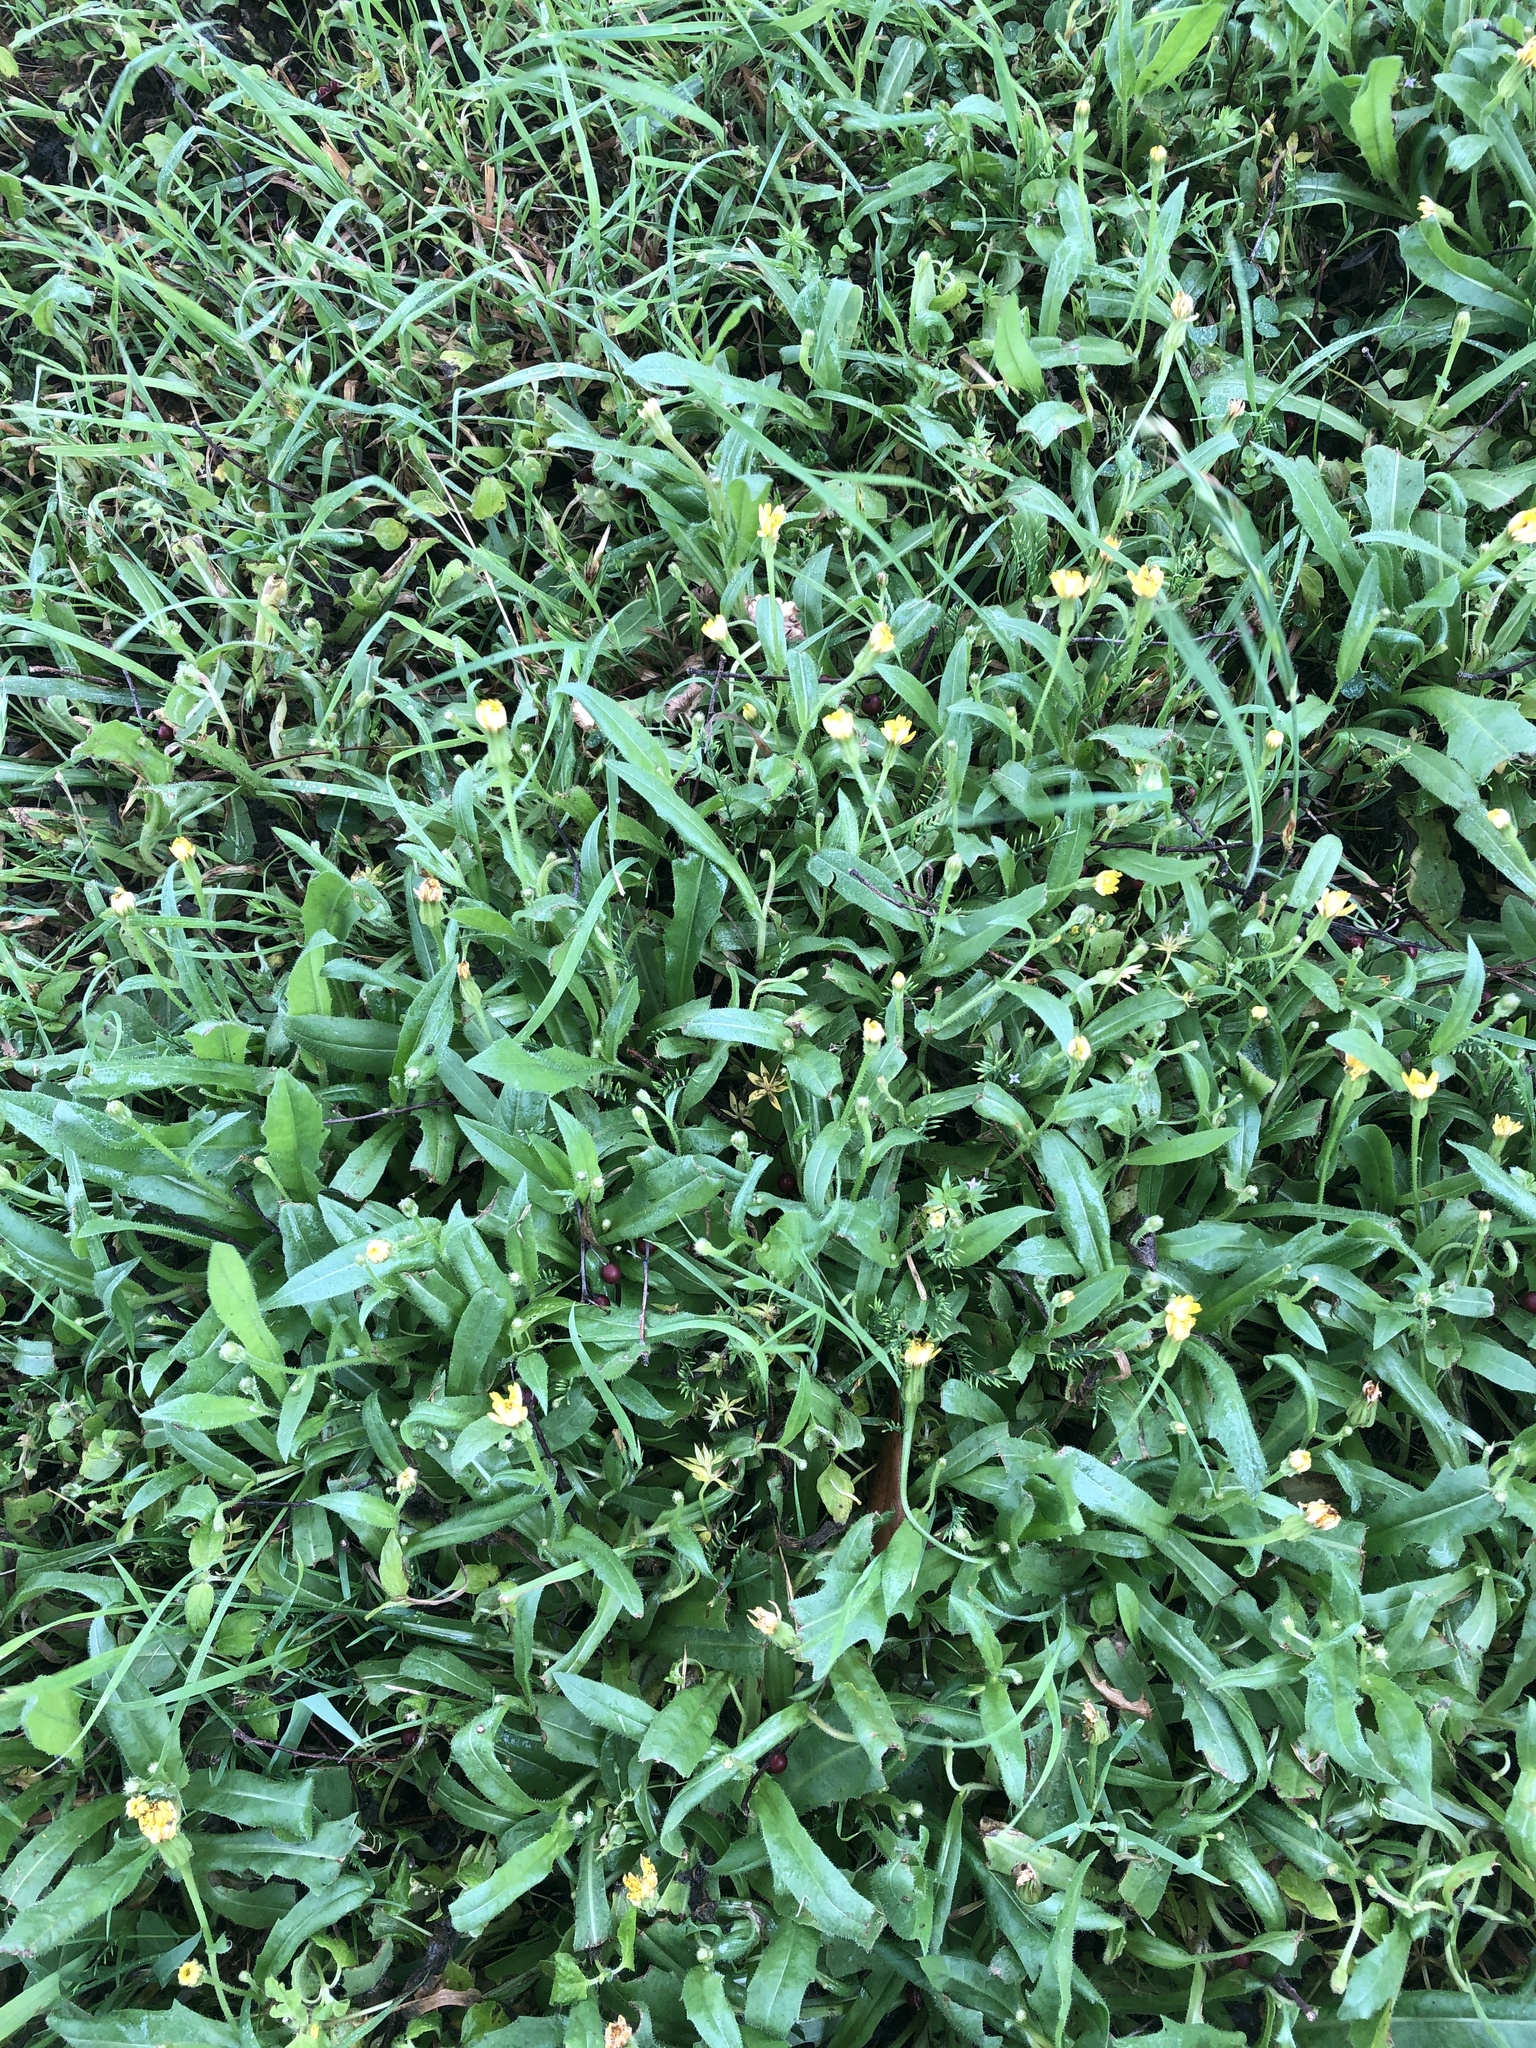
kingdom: Plantae
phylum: Tracheophyta
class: Magnoliopsida
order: Asterales
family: Asteraceae
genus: Hedypnois
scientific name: Hedypnois rhagadioloides
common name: Cretan weed
